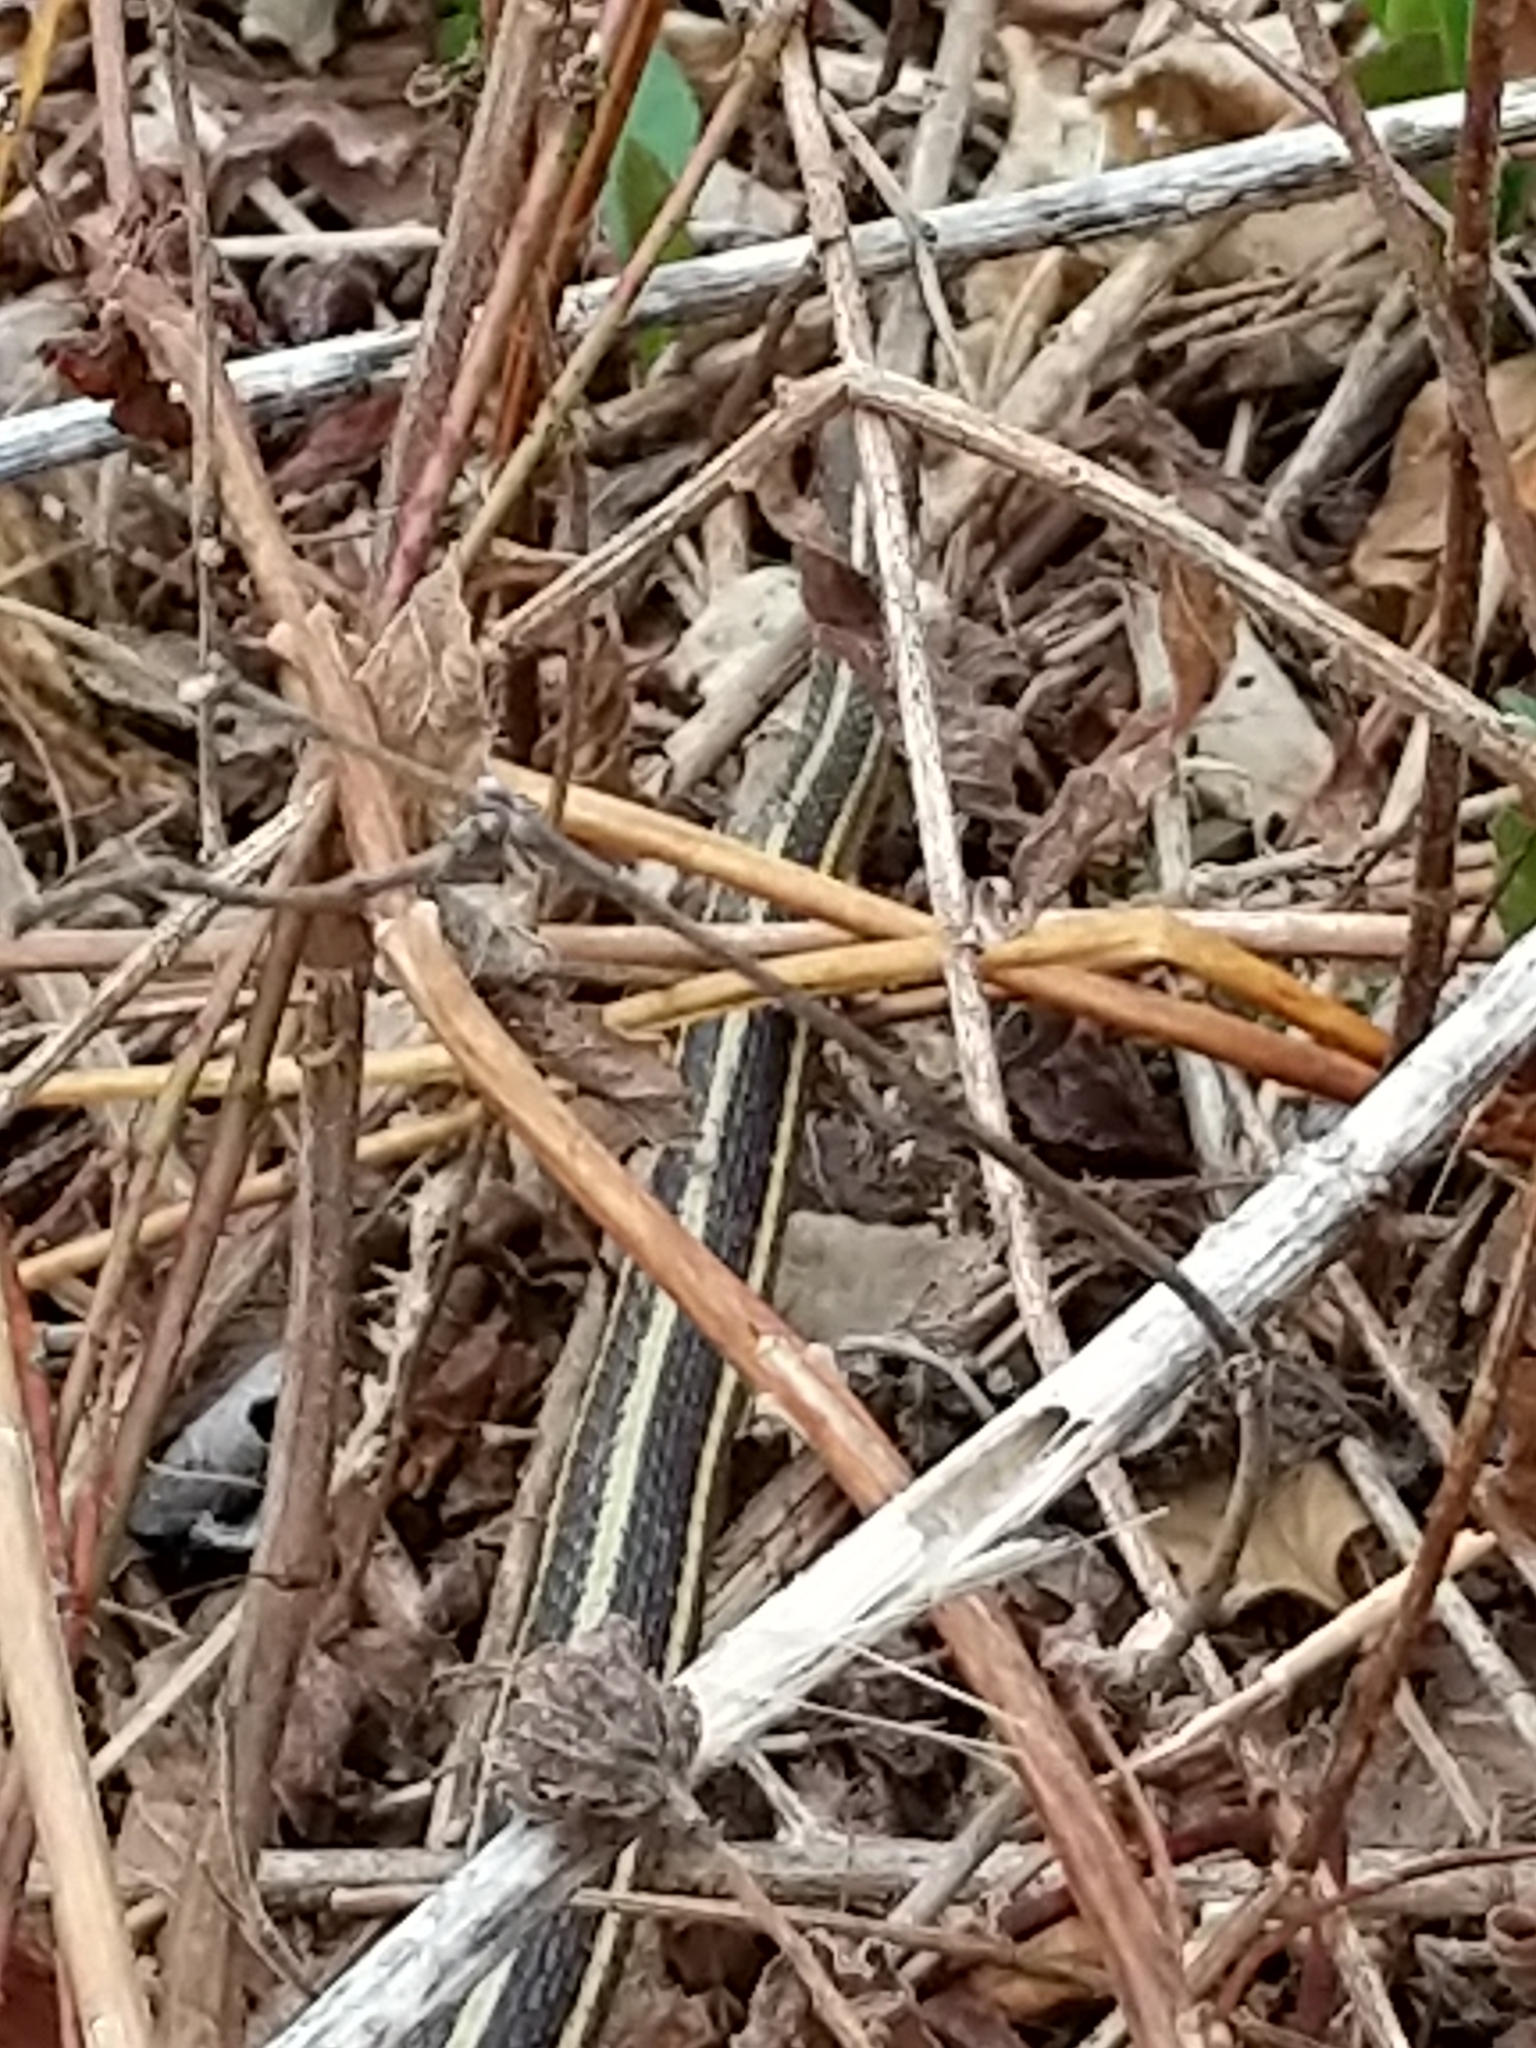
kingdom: Animalia
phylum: Chordata
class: Squamata
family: Colubridae
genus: Thamnophis
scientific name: Thamnophis saurita
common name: Eastern ribbonsnake
